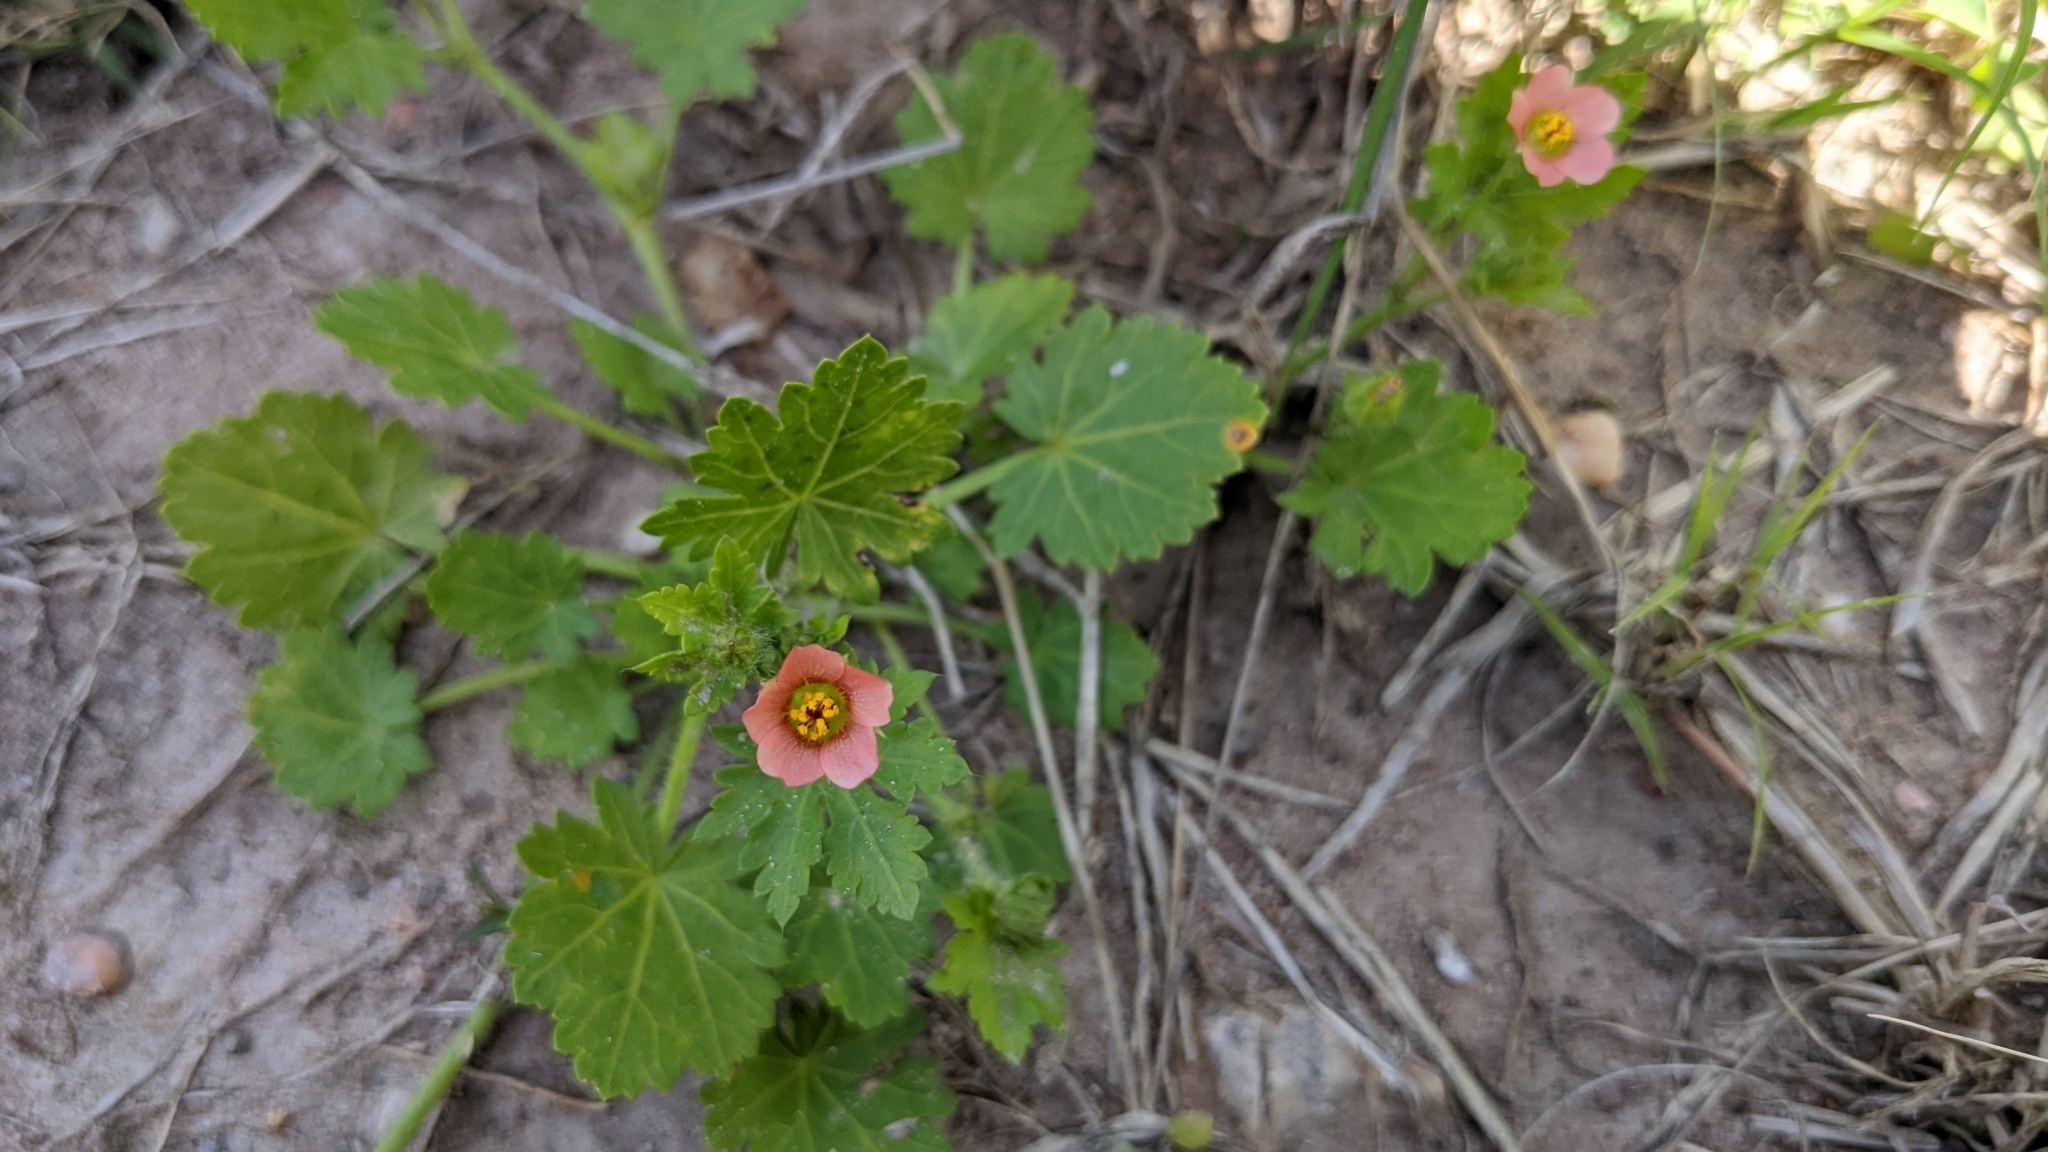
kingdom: Plantae
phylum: Tracheophyta
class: Magnoliopsida
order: Malvales
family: Malvaceae
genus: Modiola
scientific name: Modiola caroliniana
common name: Carolina bristlemallow
